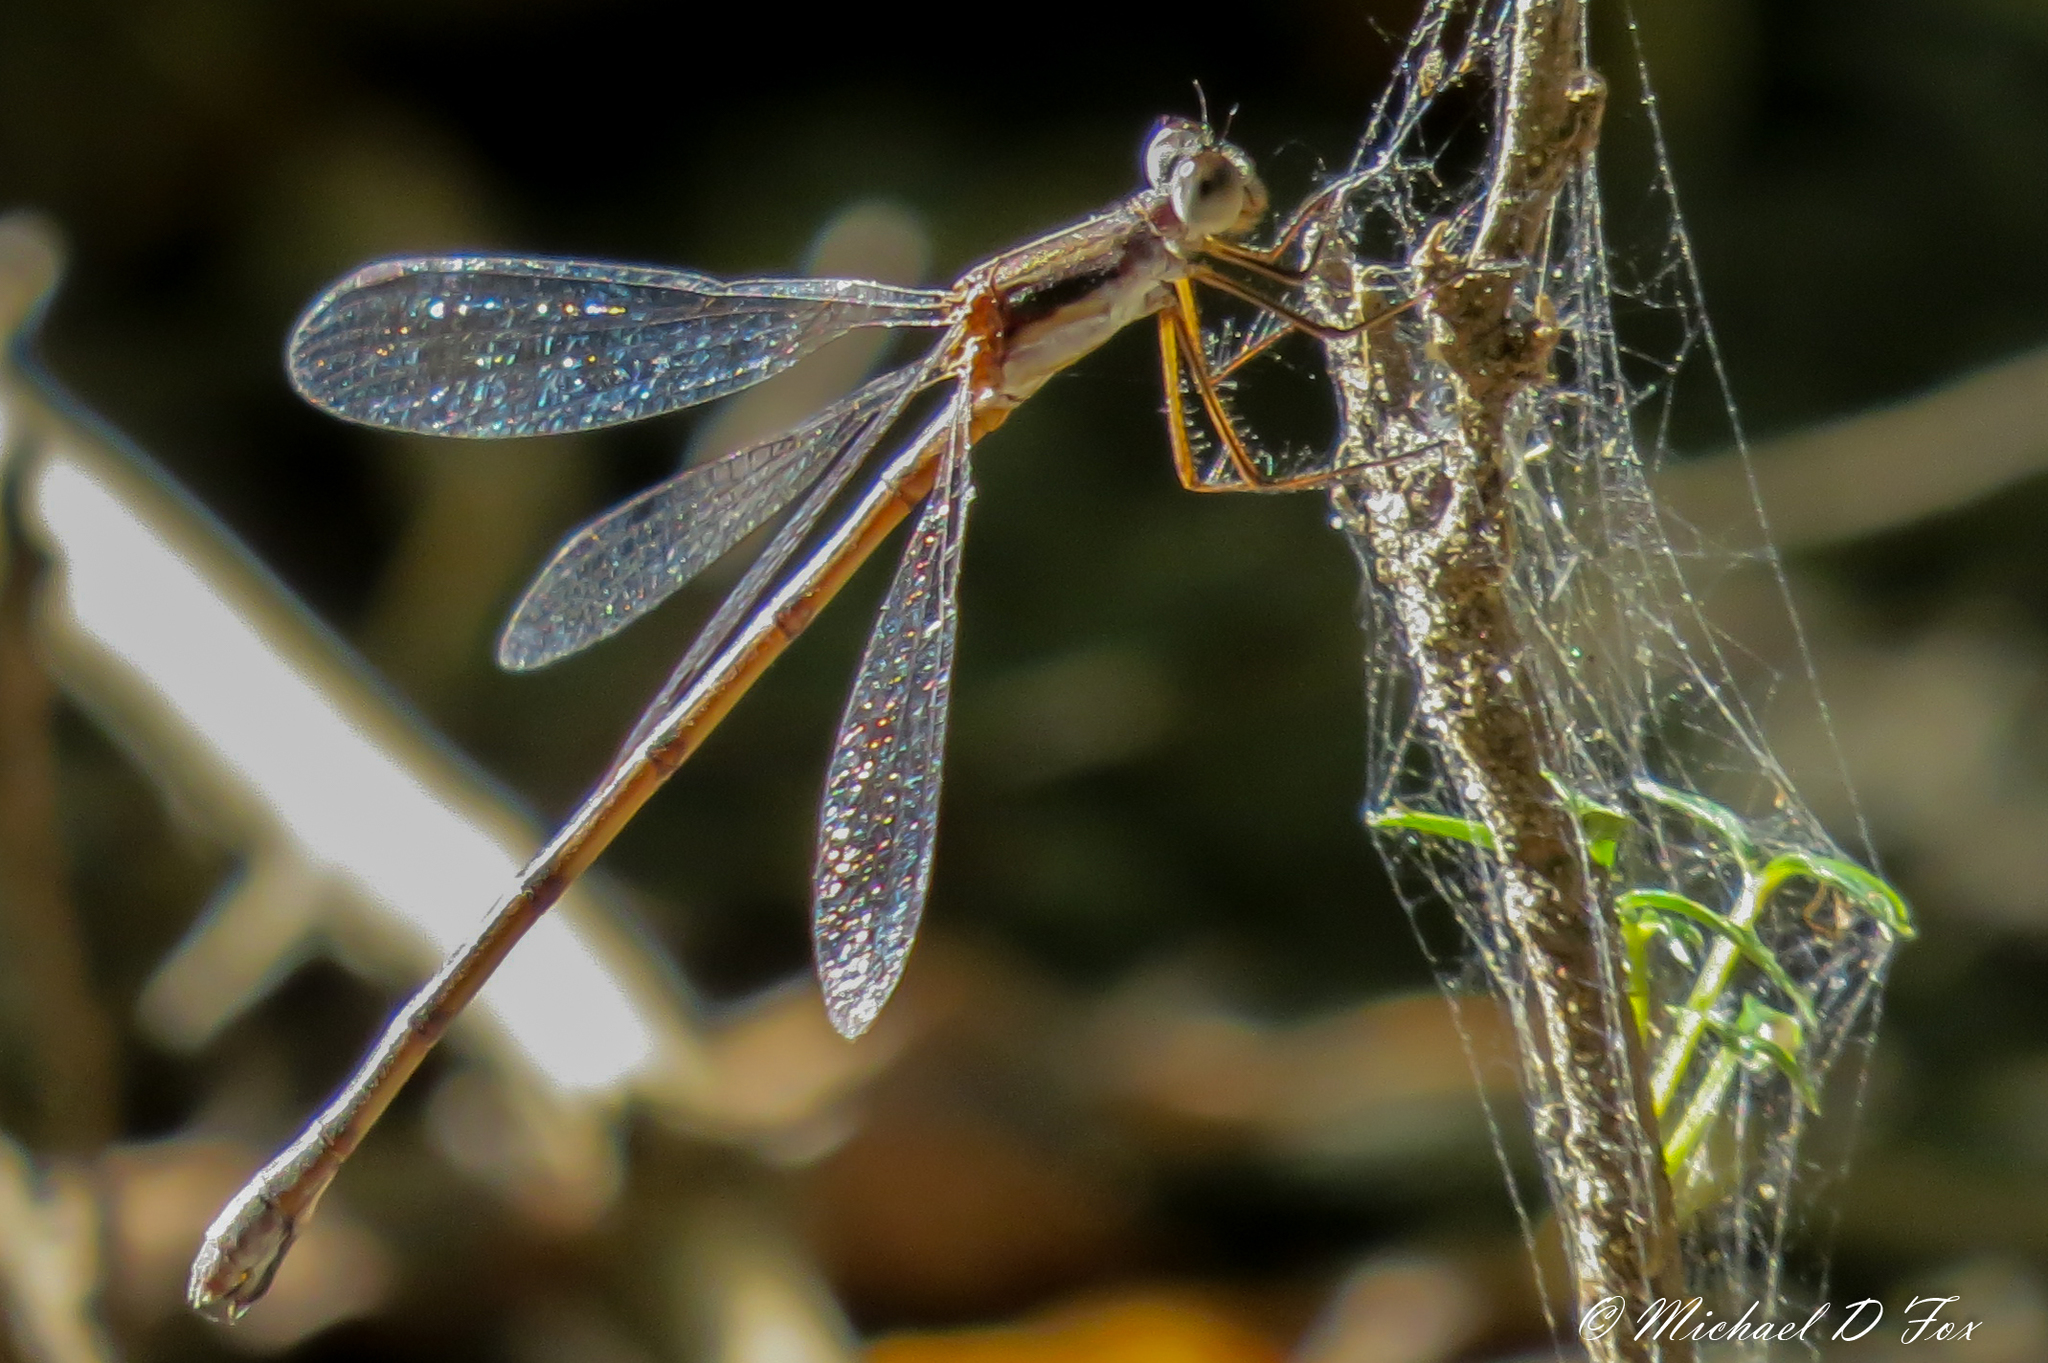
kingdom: Animalia
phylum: Arthropoda
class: Insecta
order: Odonata
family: Lestidae
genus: Lestes
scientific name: Lestes australis
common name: Southern spreadwing
